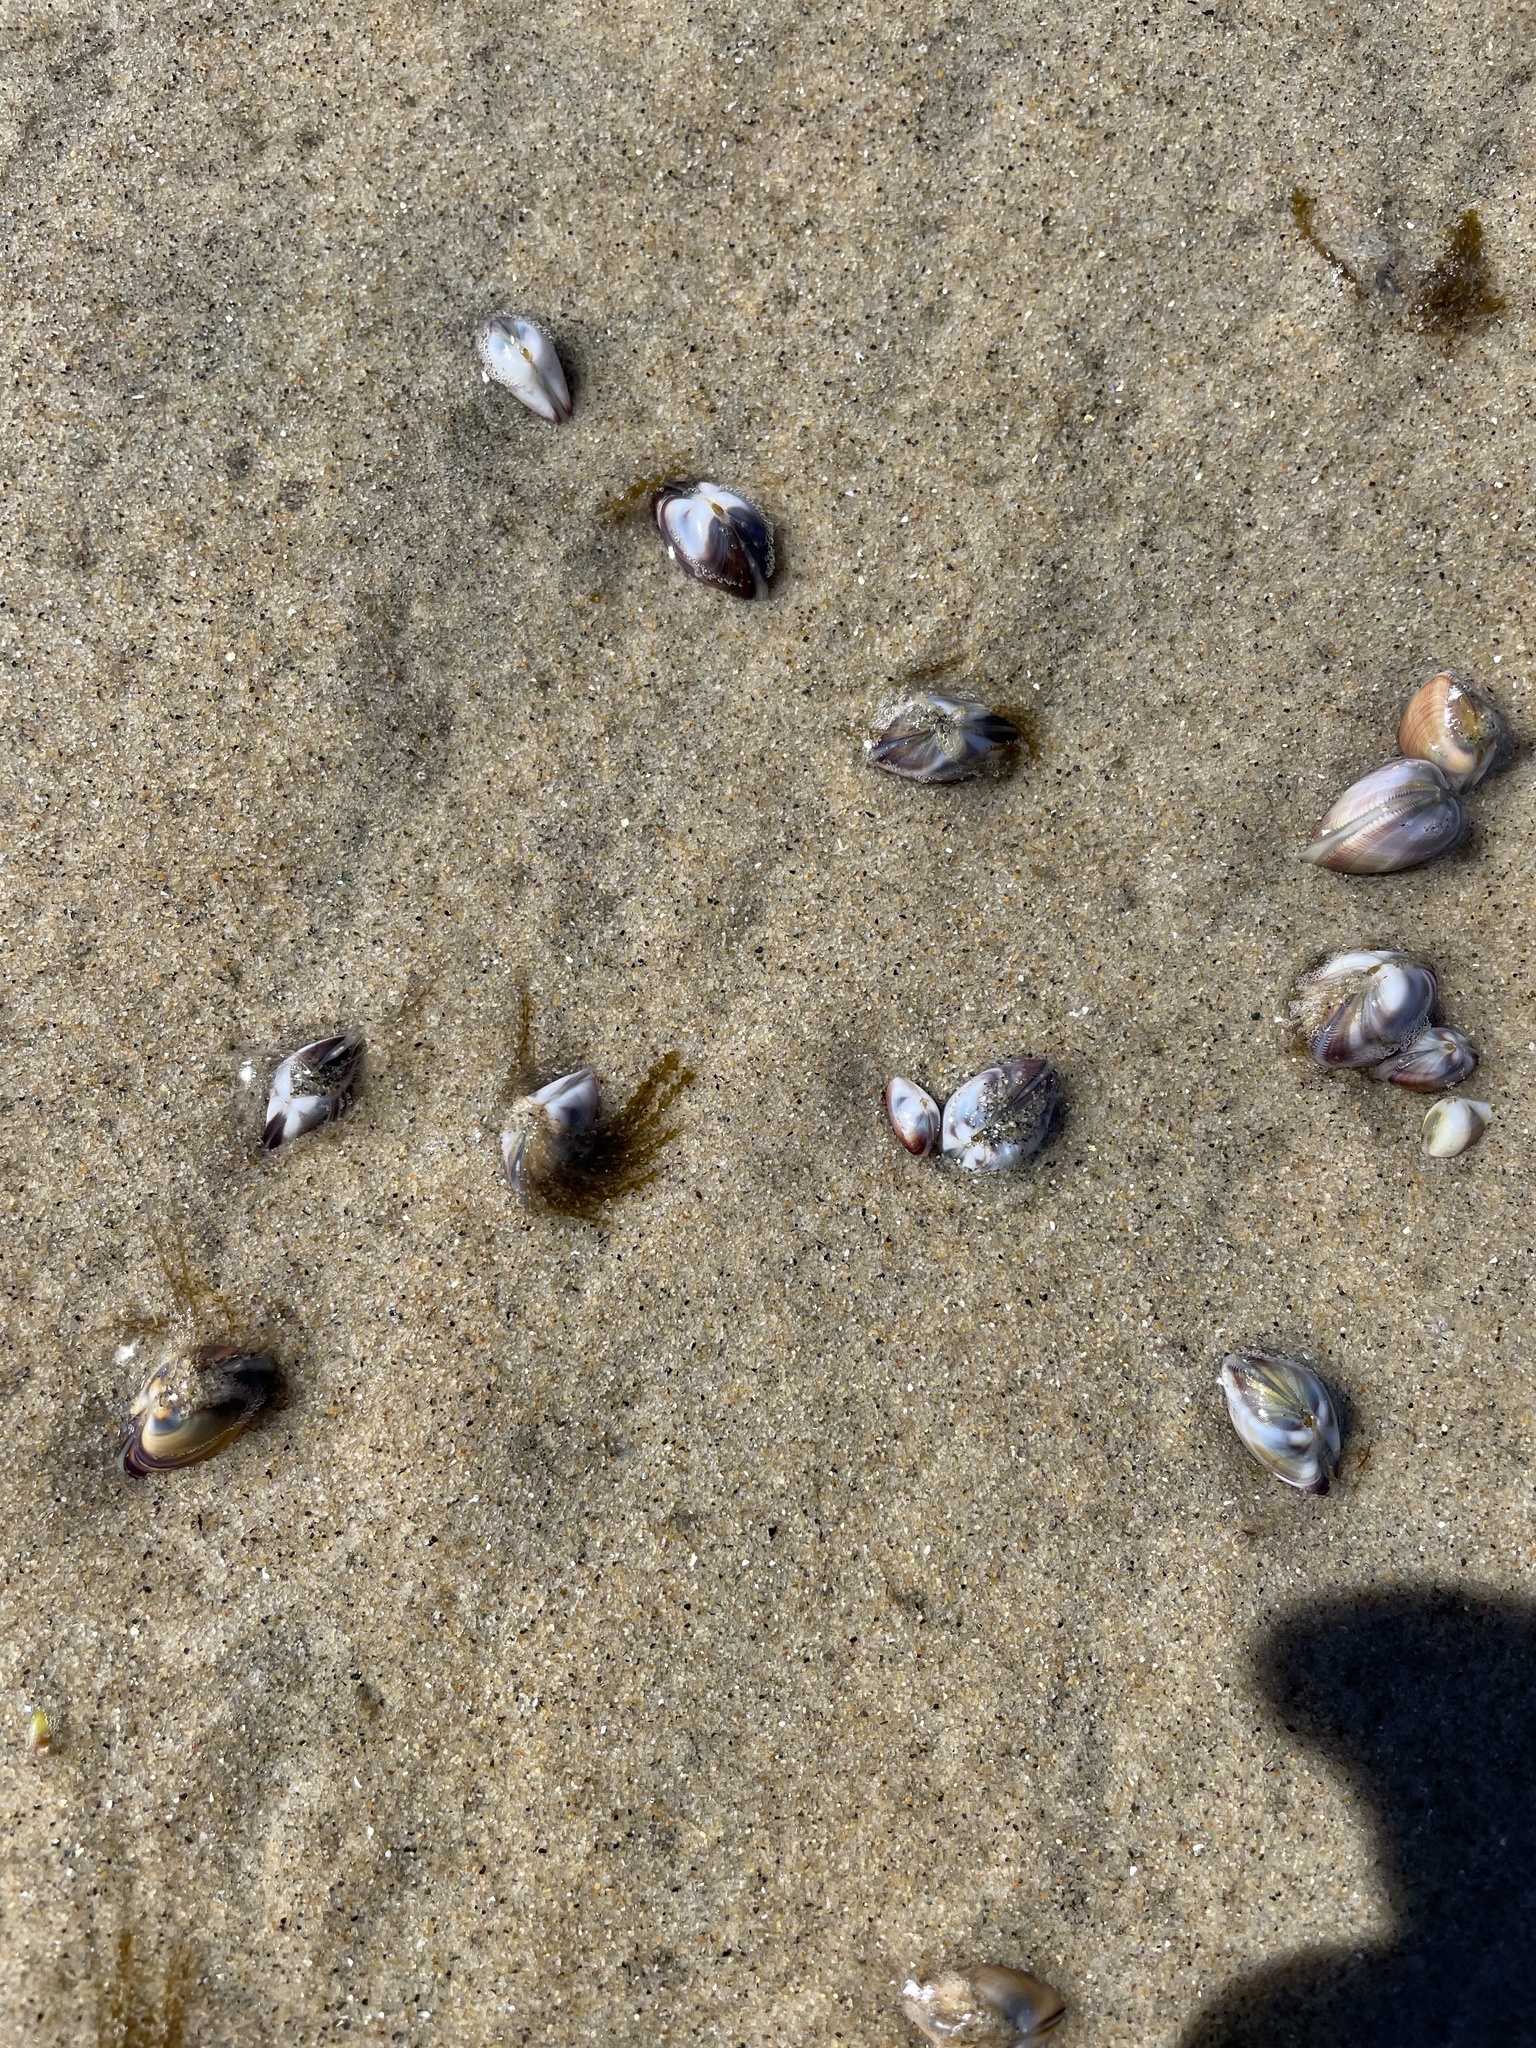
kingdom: Animalia
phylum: Cnidaria
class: Hydrozoa
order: Leptothecata
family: Lovenellidae
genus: Eucheilota
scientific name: Eucheilota bakeri
